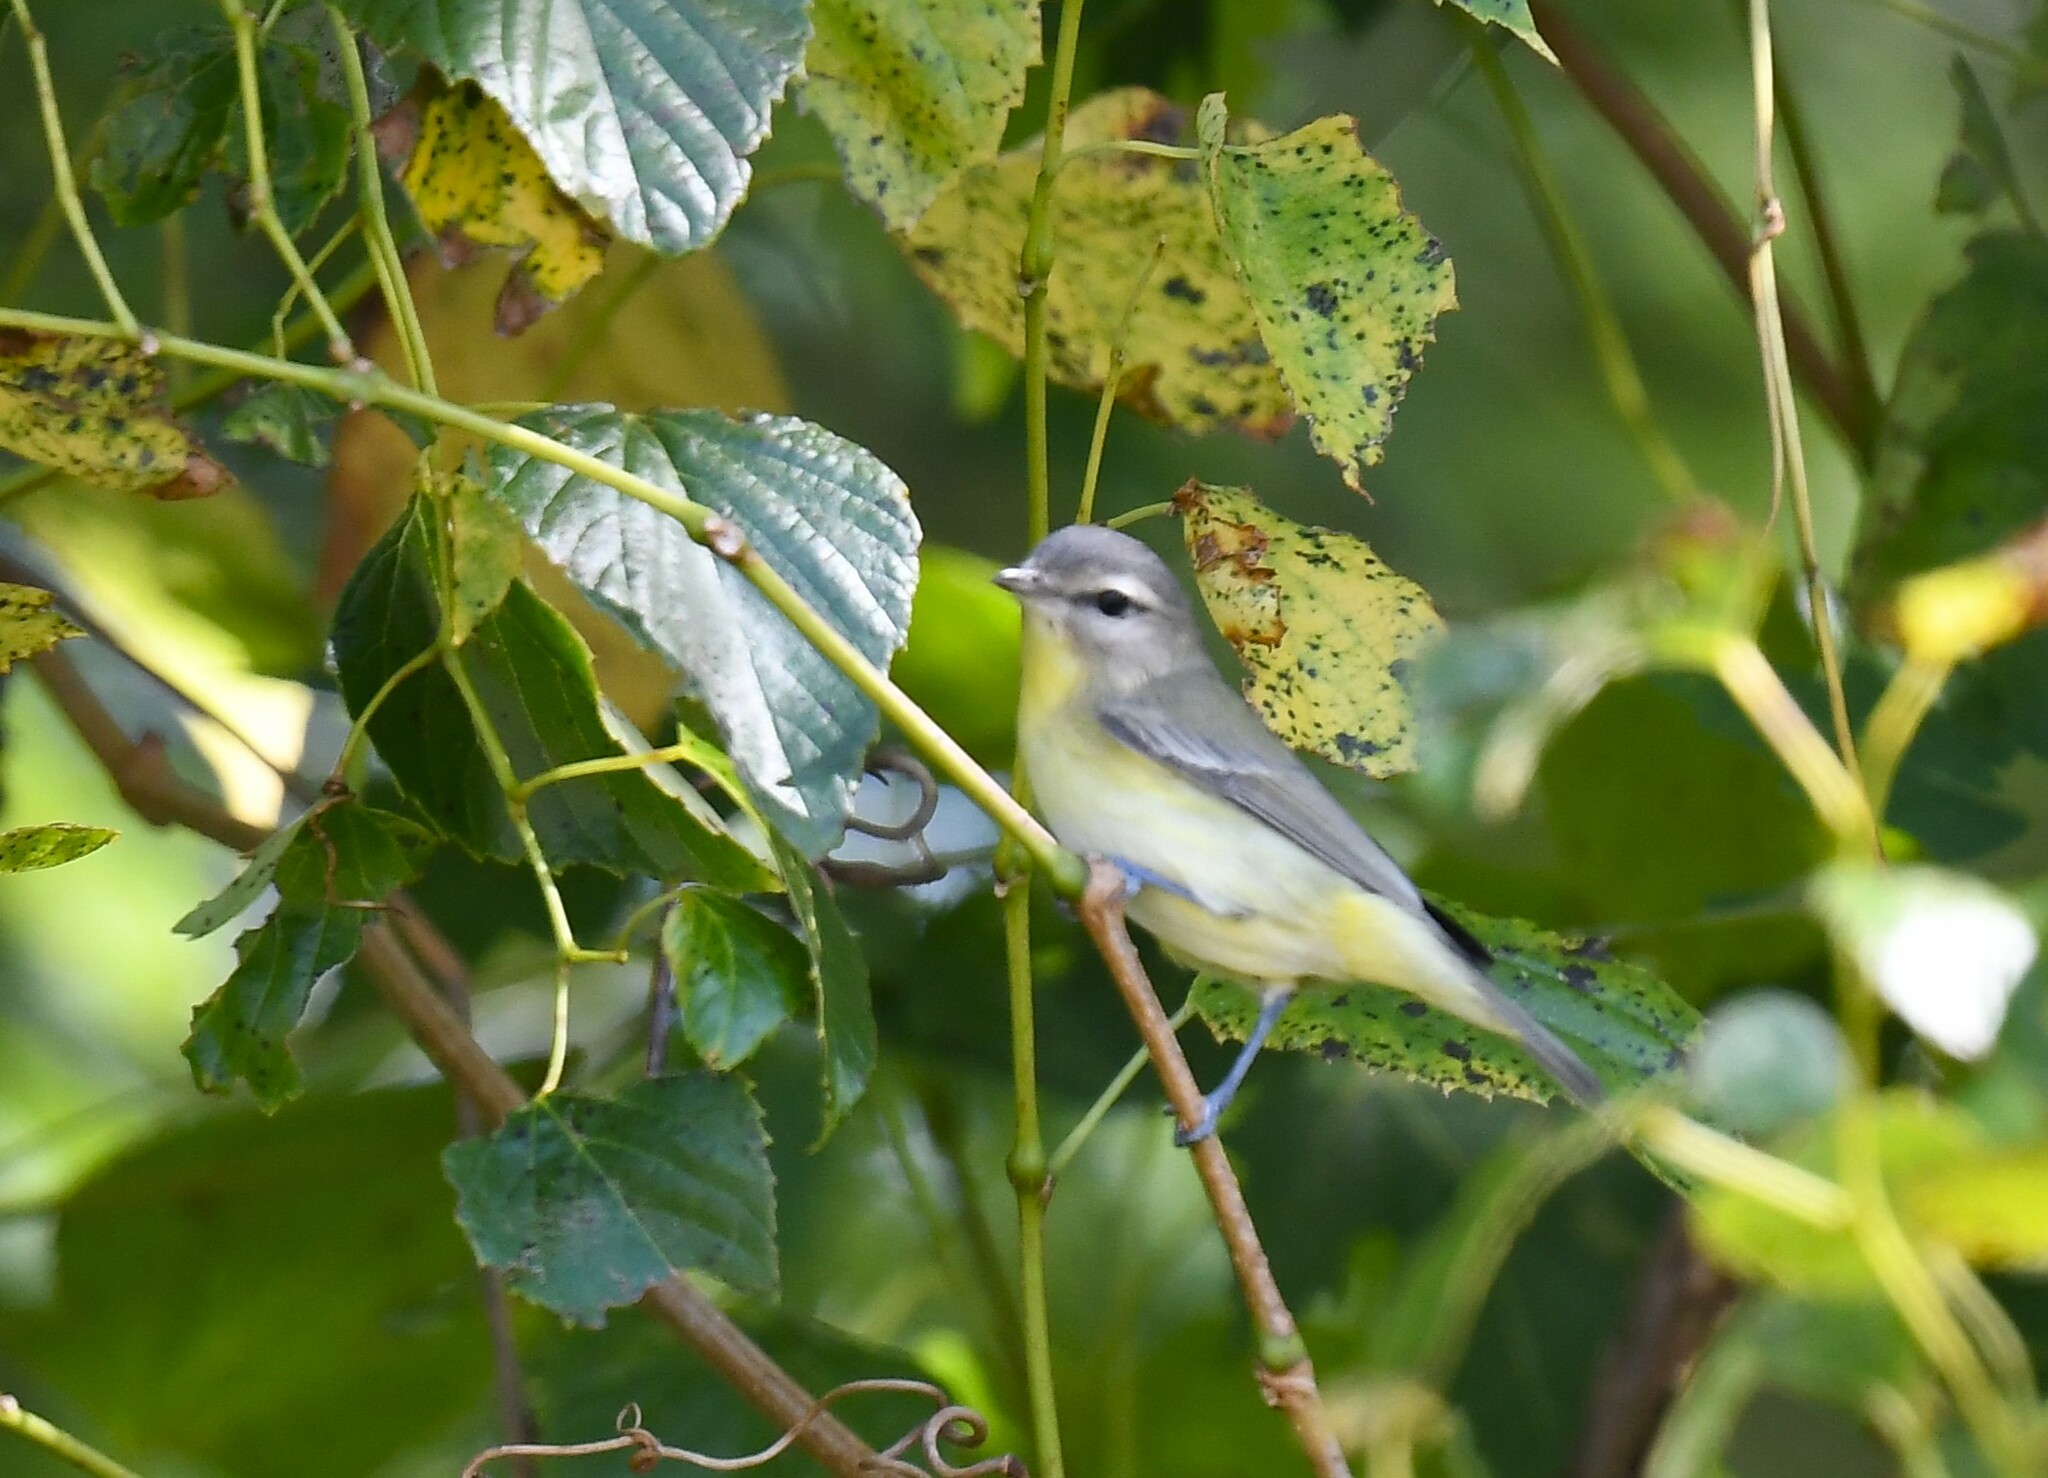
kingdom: Animalia
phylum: Chordata
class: Aves
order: Passeriformes
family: Vireonidae
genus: Vireo
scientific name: Vireo philadelphicus
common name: Philadelphia vireo
